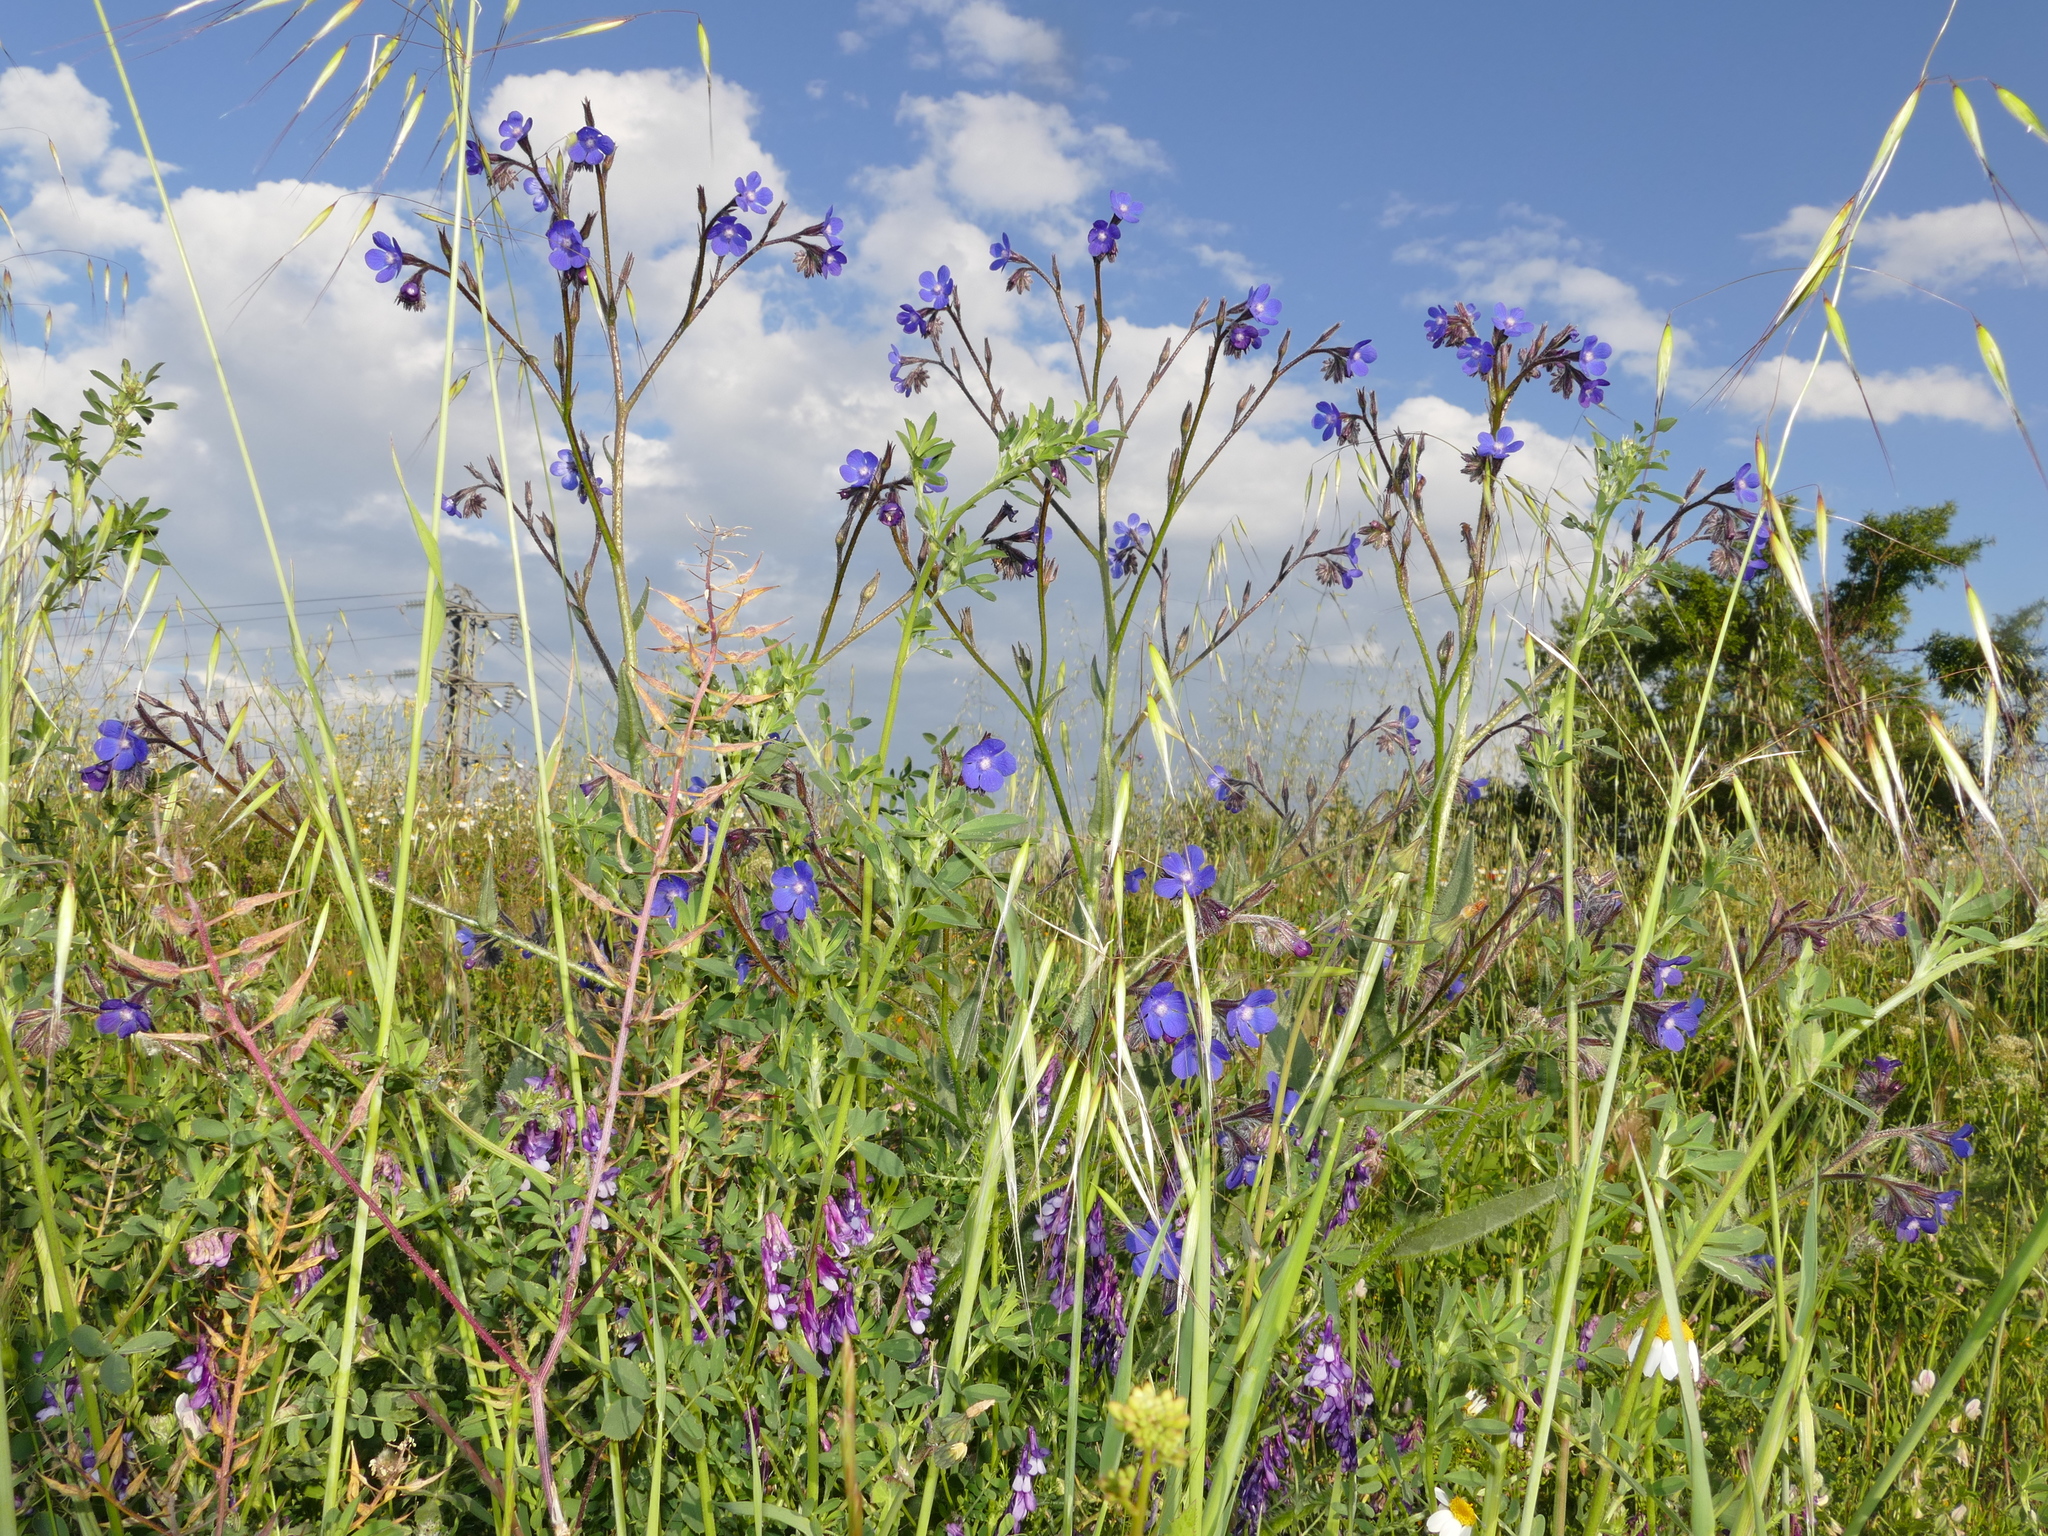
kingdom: Plantae
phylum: Tracheophyta
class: Magnoliopsida
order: Boraginales
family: Boraginaceae
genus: Anchusa
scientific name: Anchusa azurea
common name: Garden anchusa
